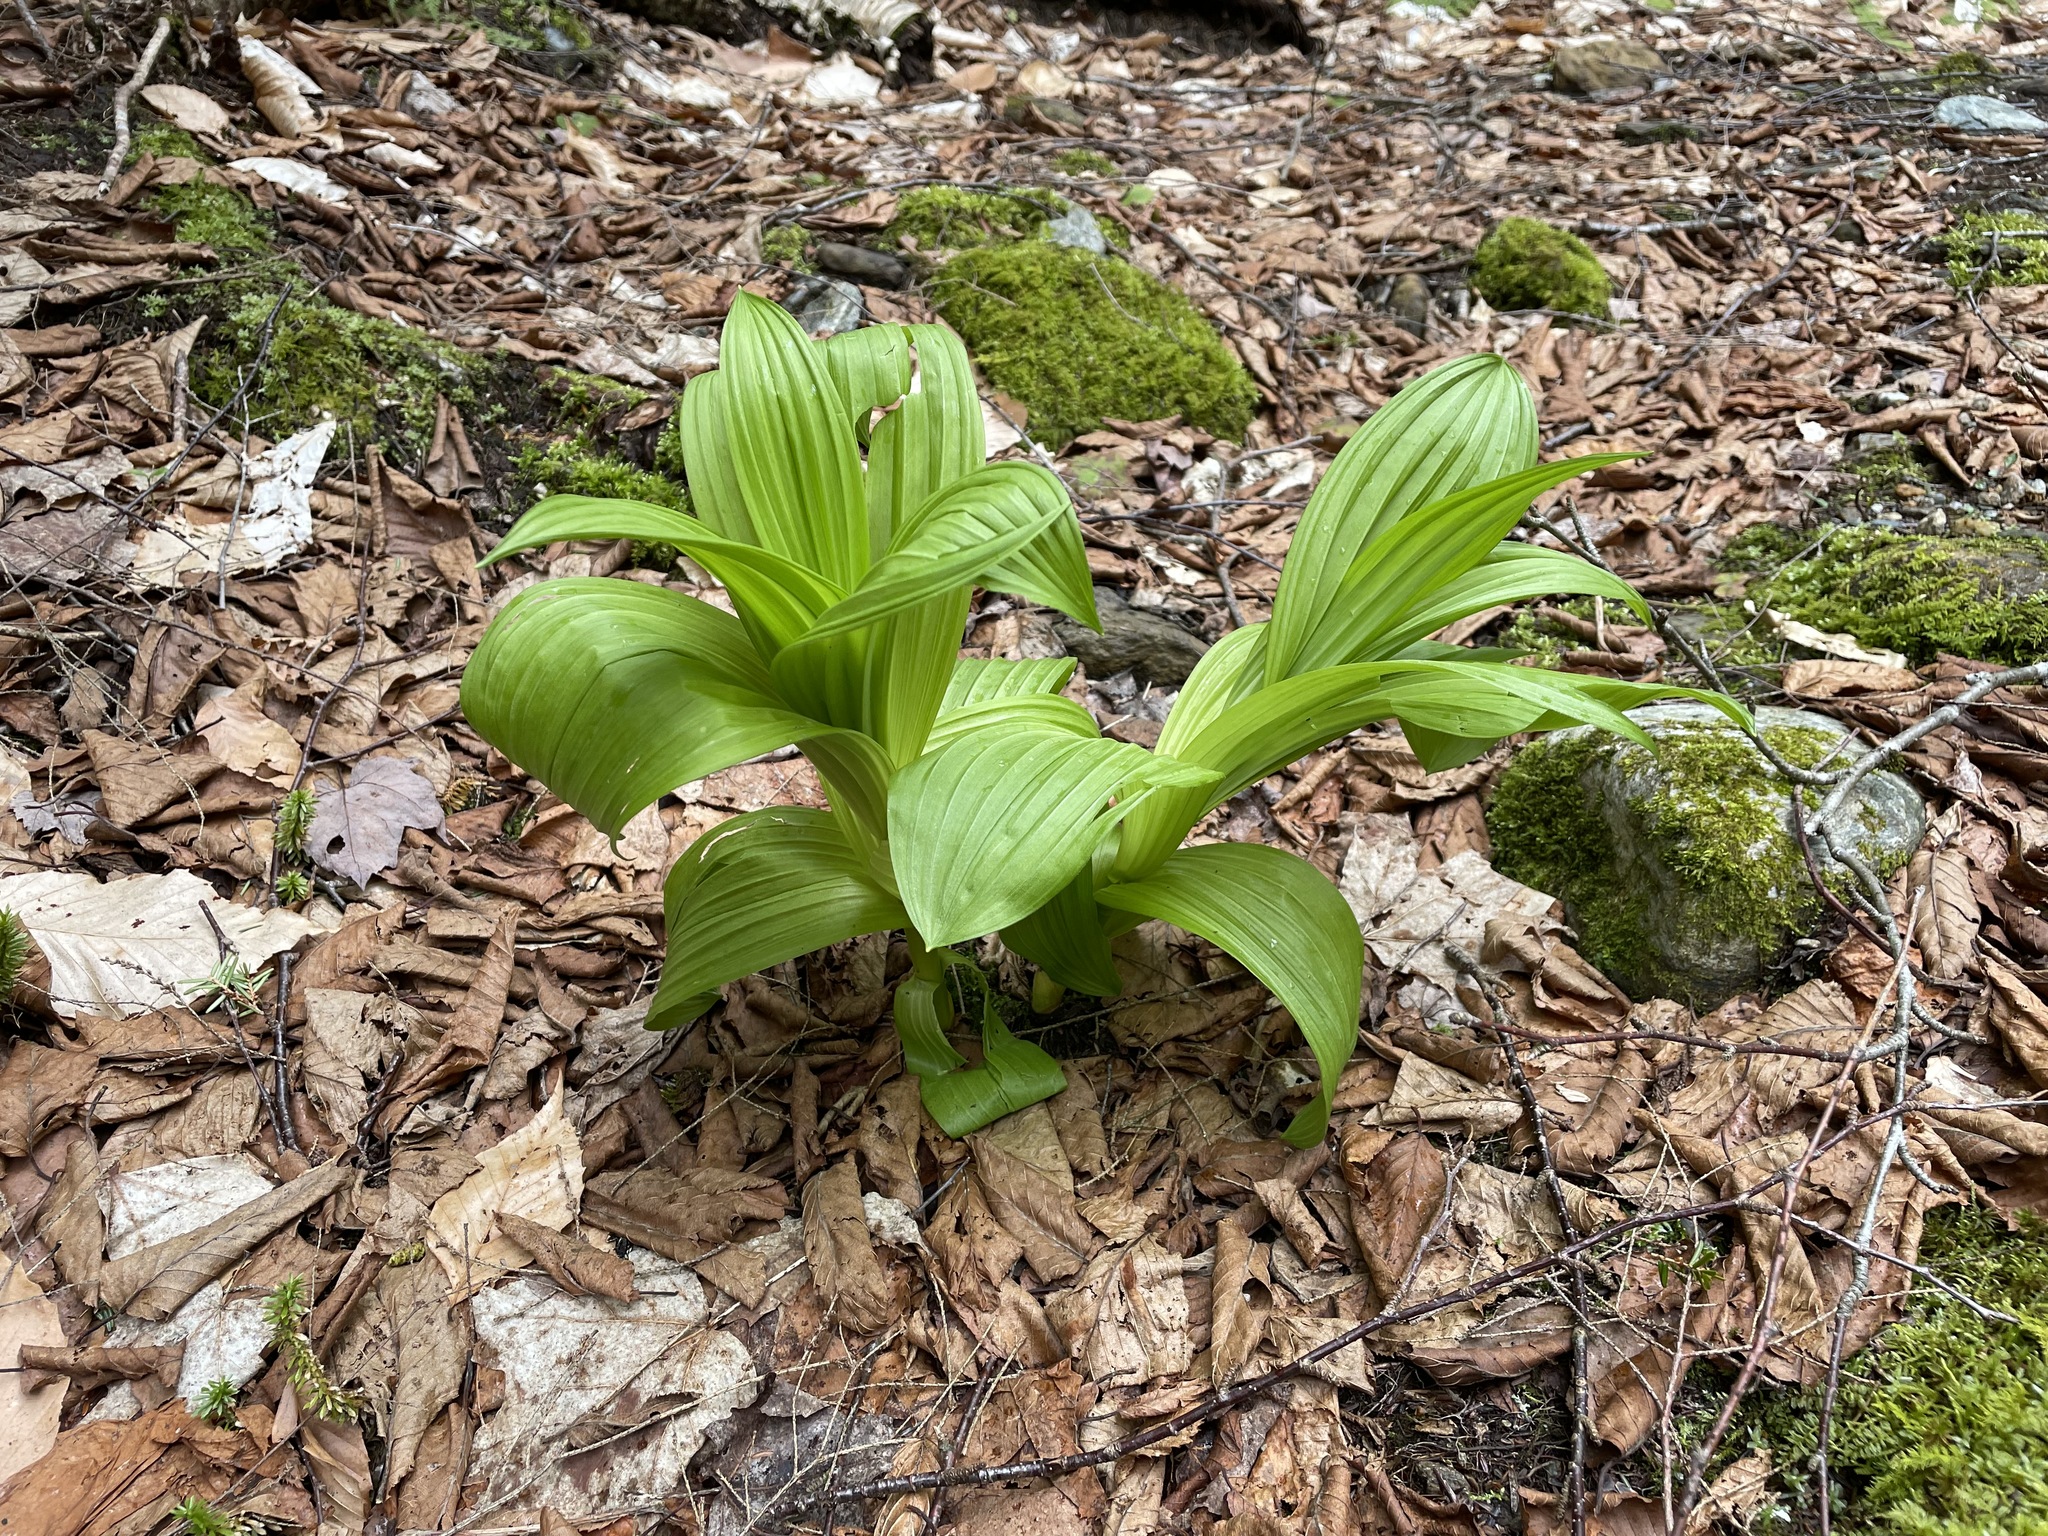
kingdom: Plantae
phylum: Tracheophyta
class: Liliopsida
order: Liliales
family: Melanthiaceae
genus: Veratrum
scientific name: Veratrum viride
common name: American false hellebore
